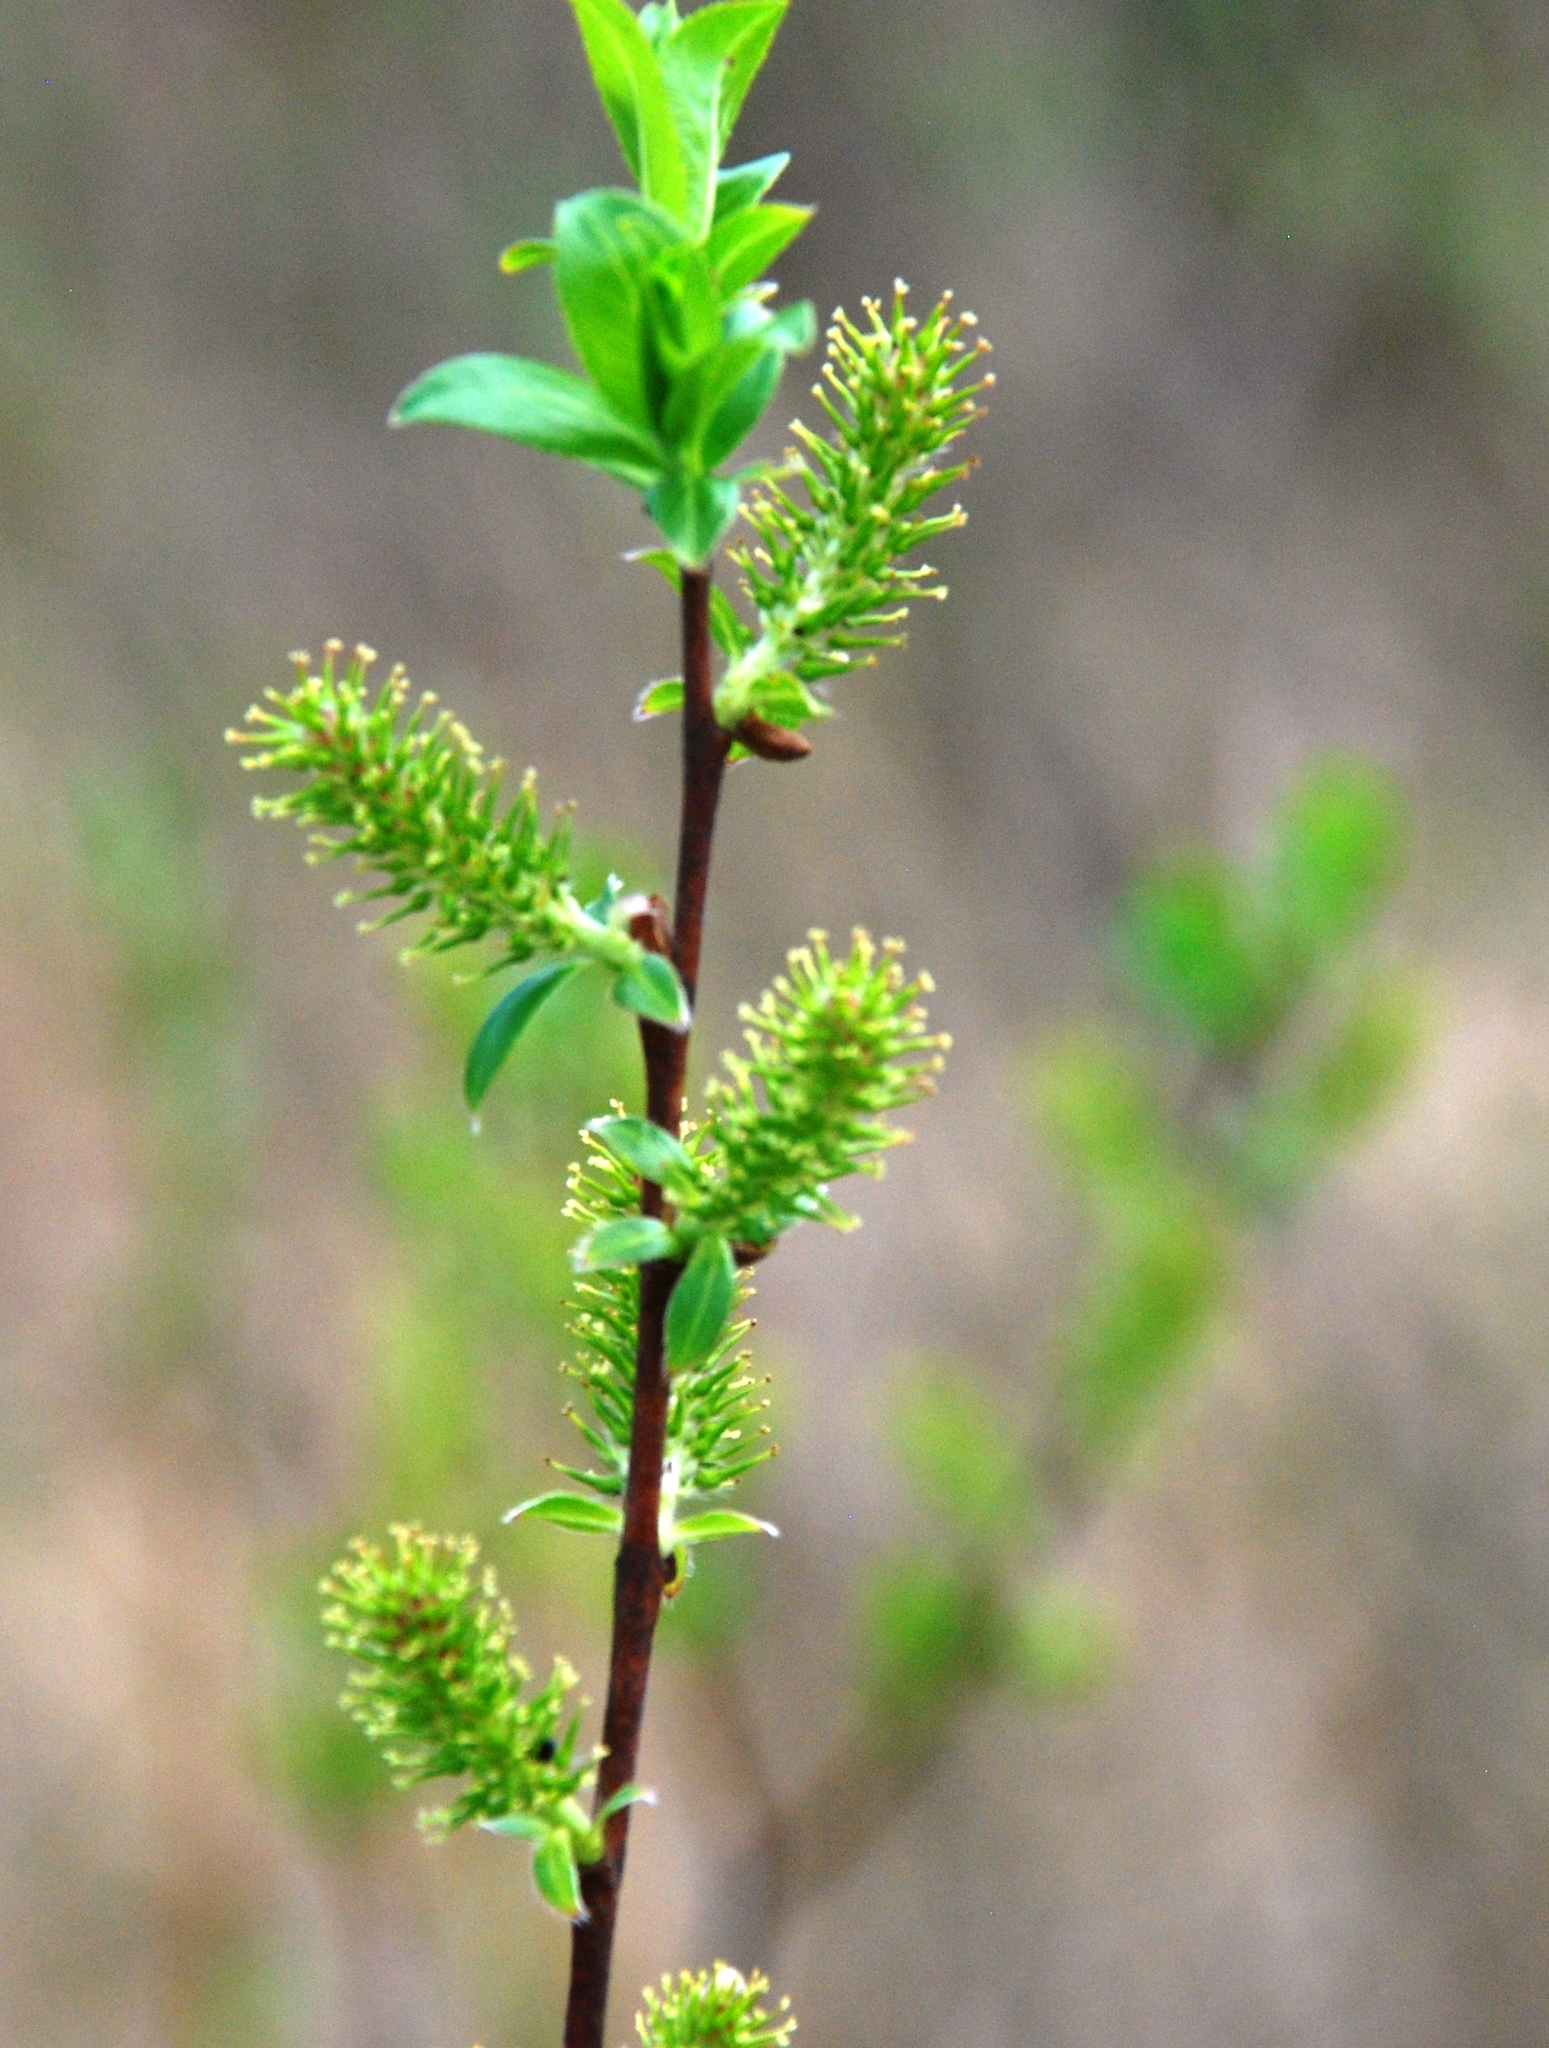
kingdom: Plantae
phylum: Tracheophyta
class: Magnoliopsida
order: Malpighiales
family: Salicaceae
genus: Salix
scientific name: Salix myrsinifolia
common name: Dark-leaved willow
